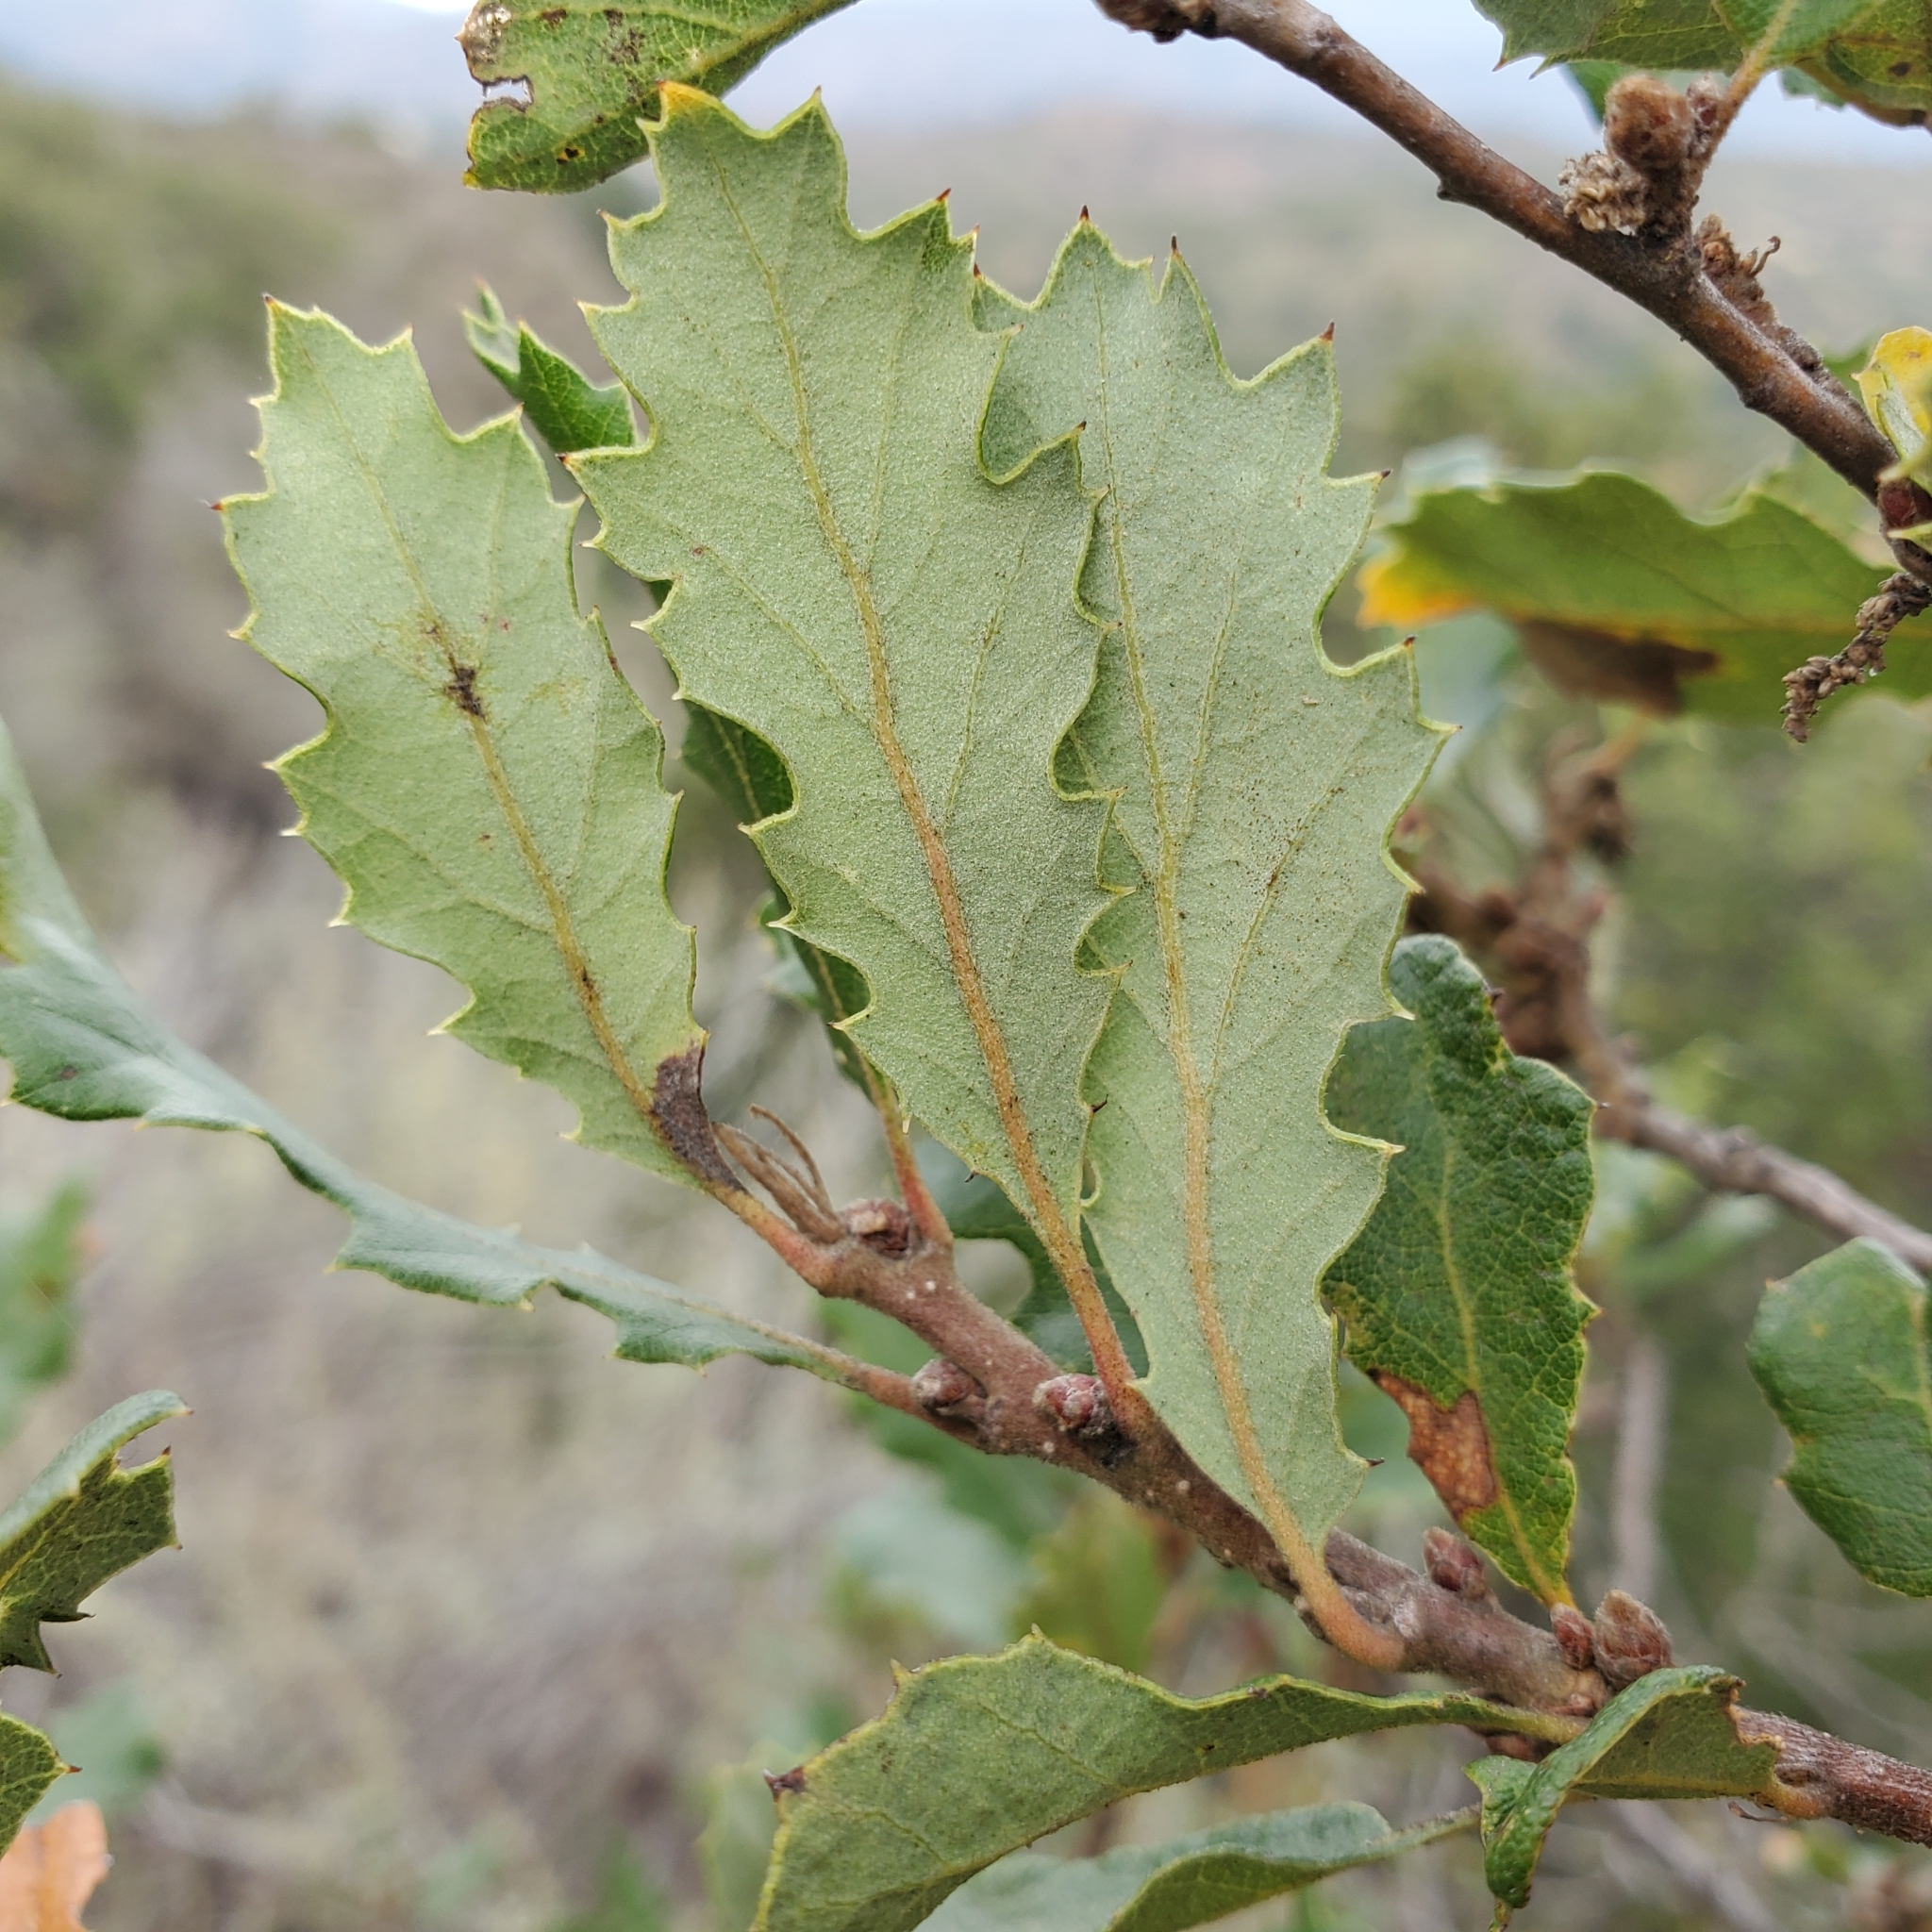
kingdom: Plantae
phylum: Tracheophyta
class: Magnoliopsida
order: Fagales
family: Fagaceae
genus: Quercus
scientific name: Quercus berberidifolia
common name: California scrub oak
